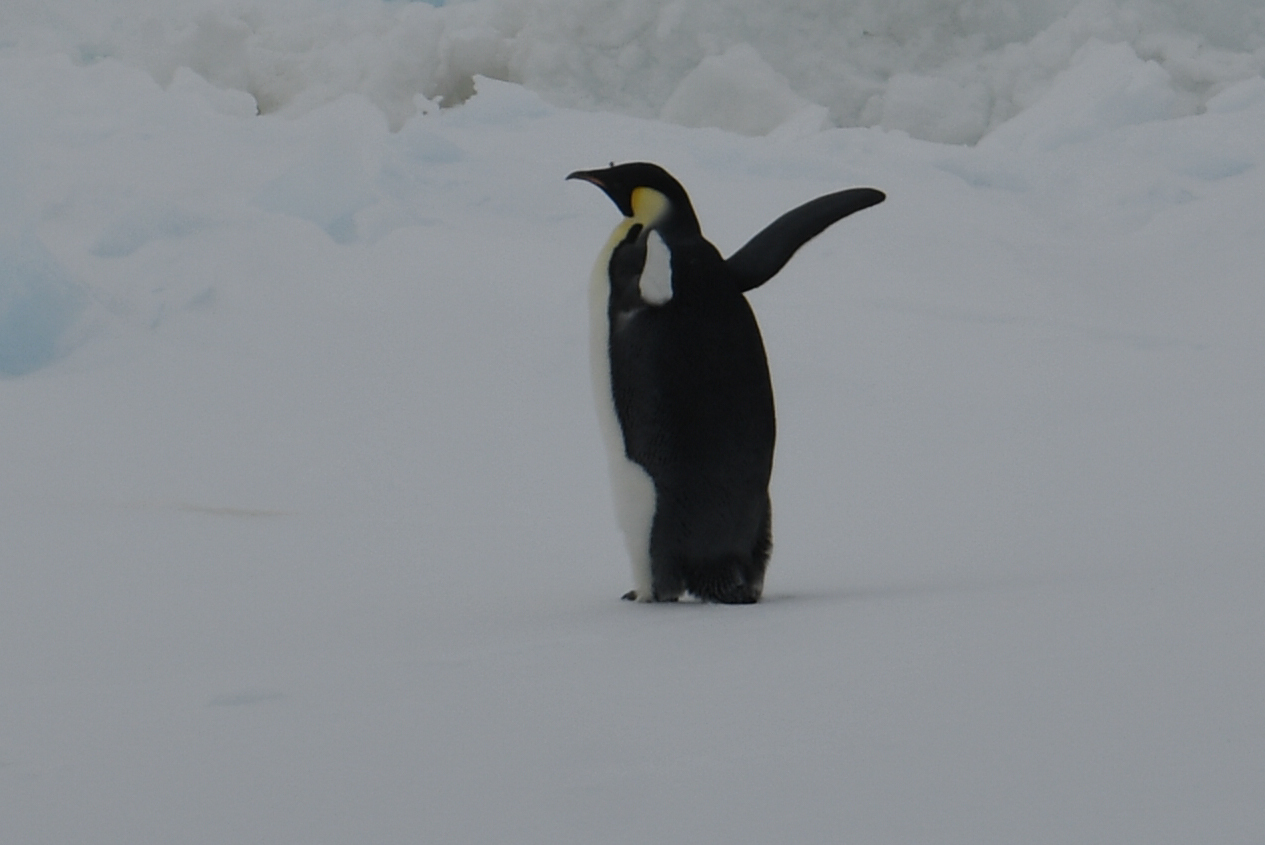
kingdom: Animalia
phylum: Chordata
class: Aves
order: Sphenisciformes
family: Spheniscidae
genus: Aptenodytes
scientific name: Aptenodytes forsteri
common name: Emperor penguin
